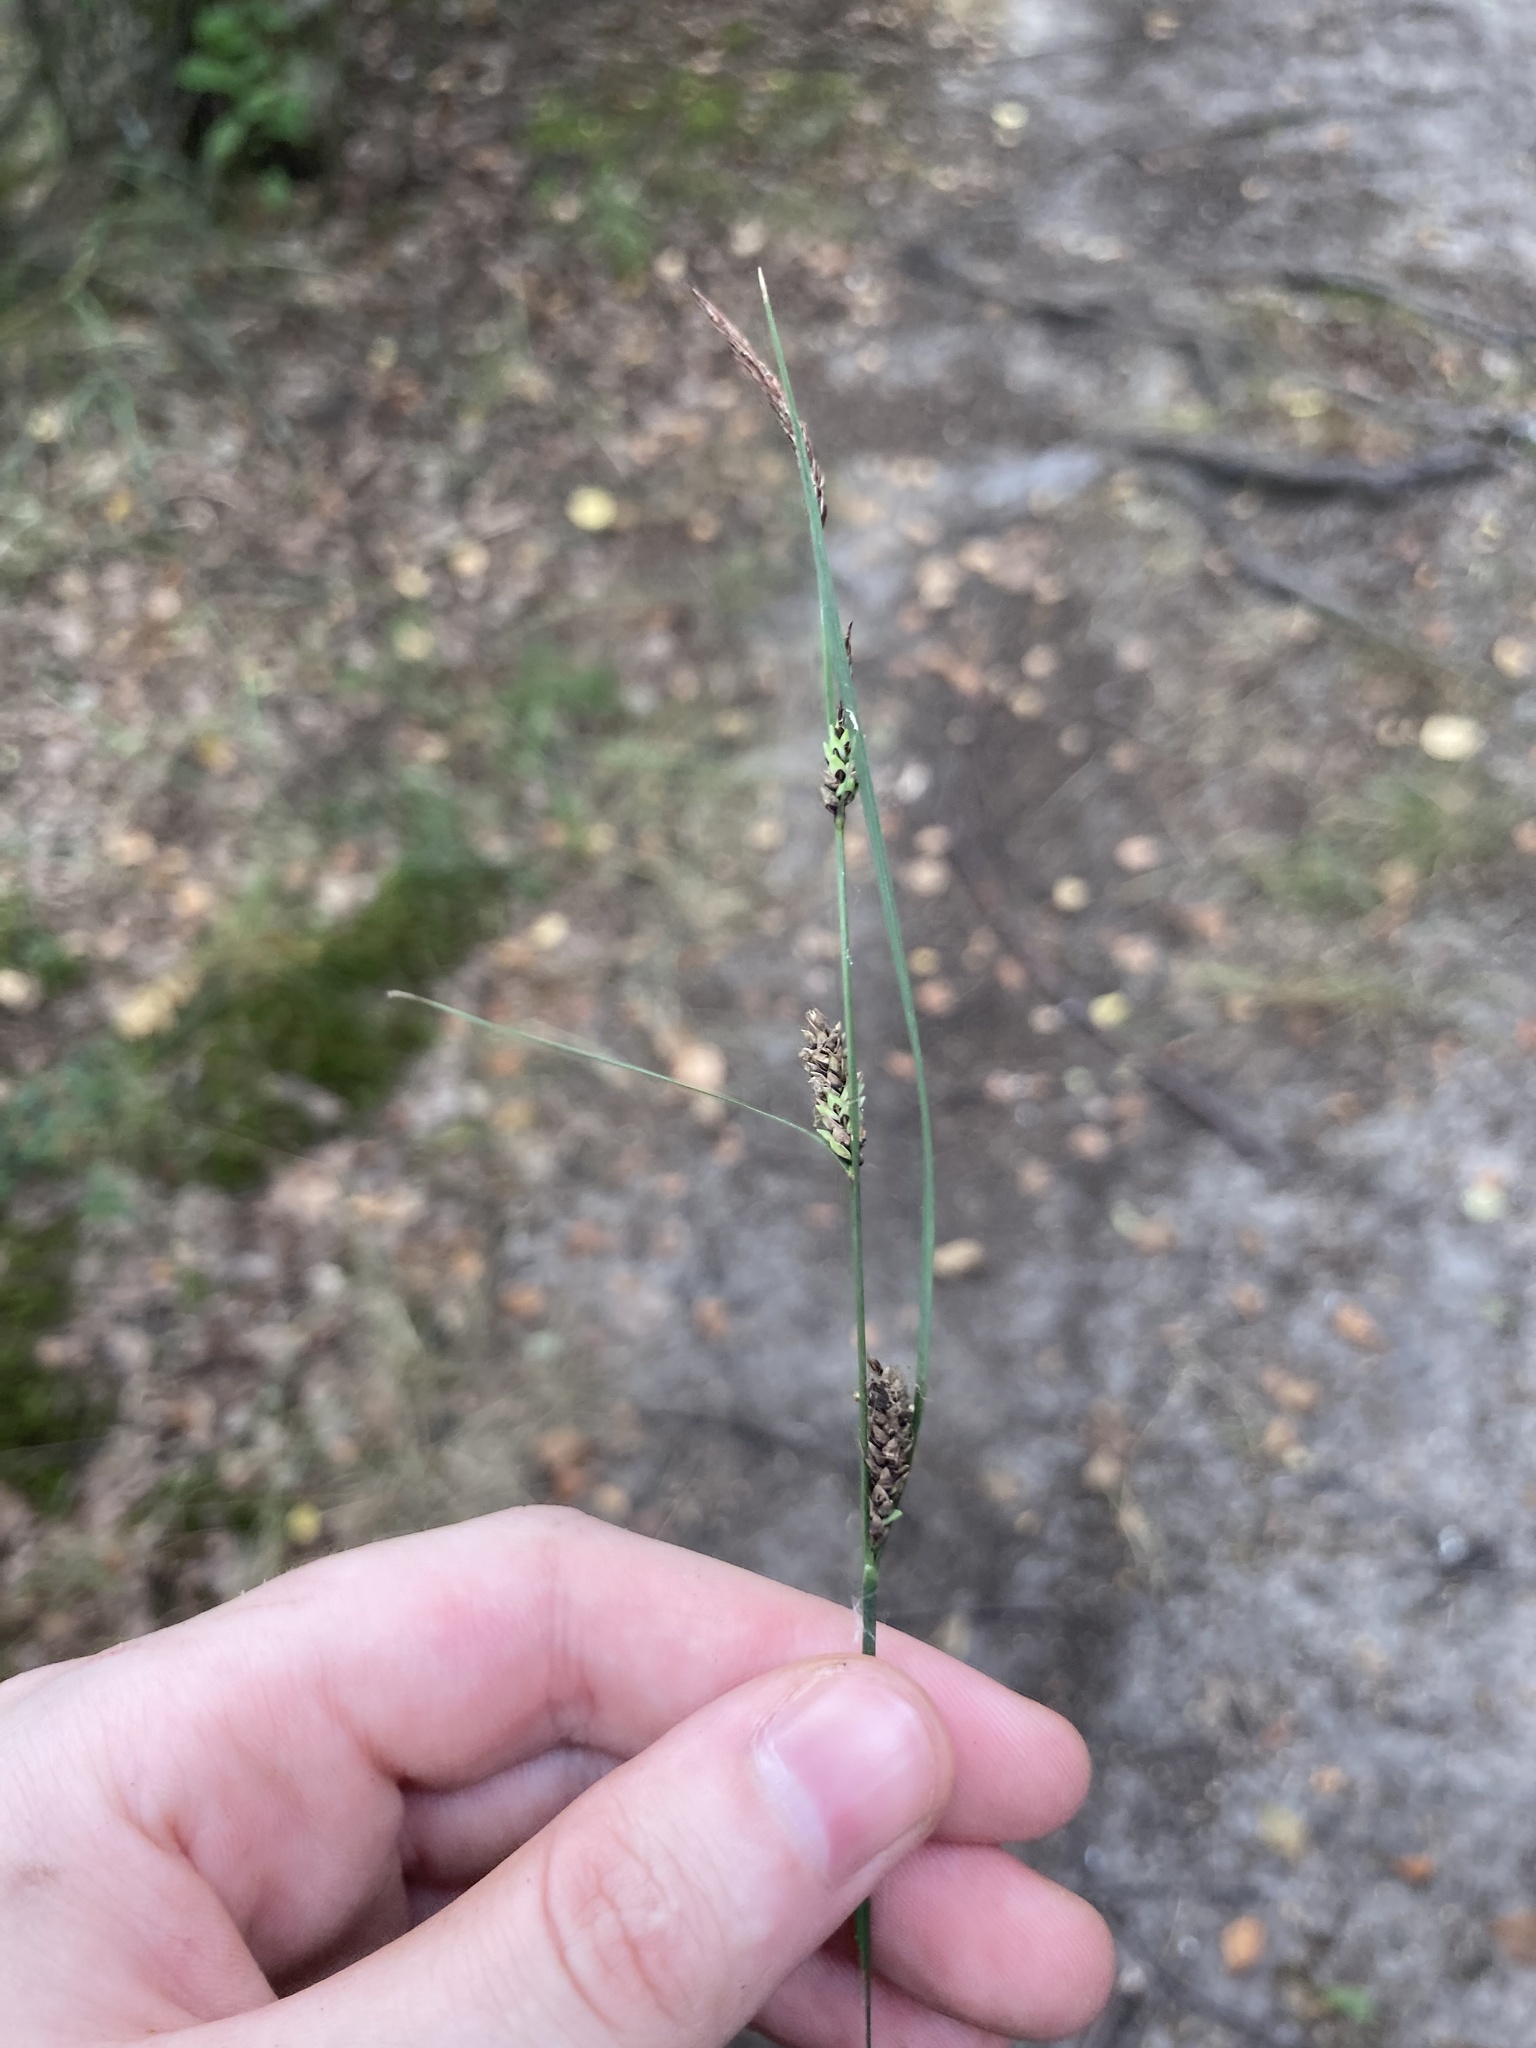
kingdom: Plantae
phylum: Tracheophyta
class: Liliopsida
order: Poales
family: Cyperaceae
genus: Carex
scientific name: Carex nigra
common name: Common sedge
